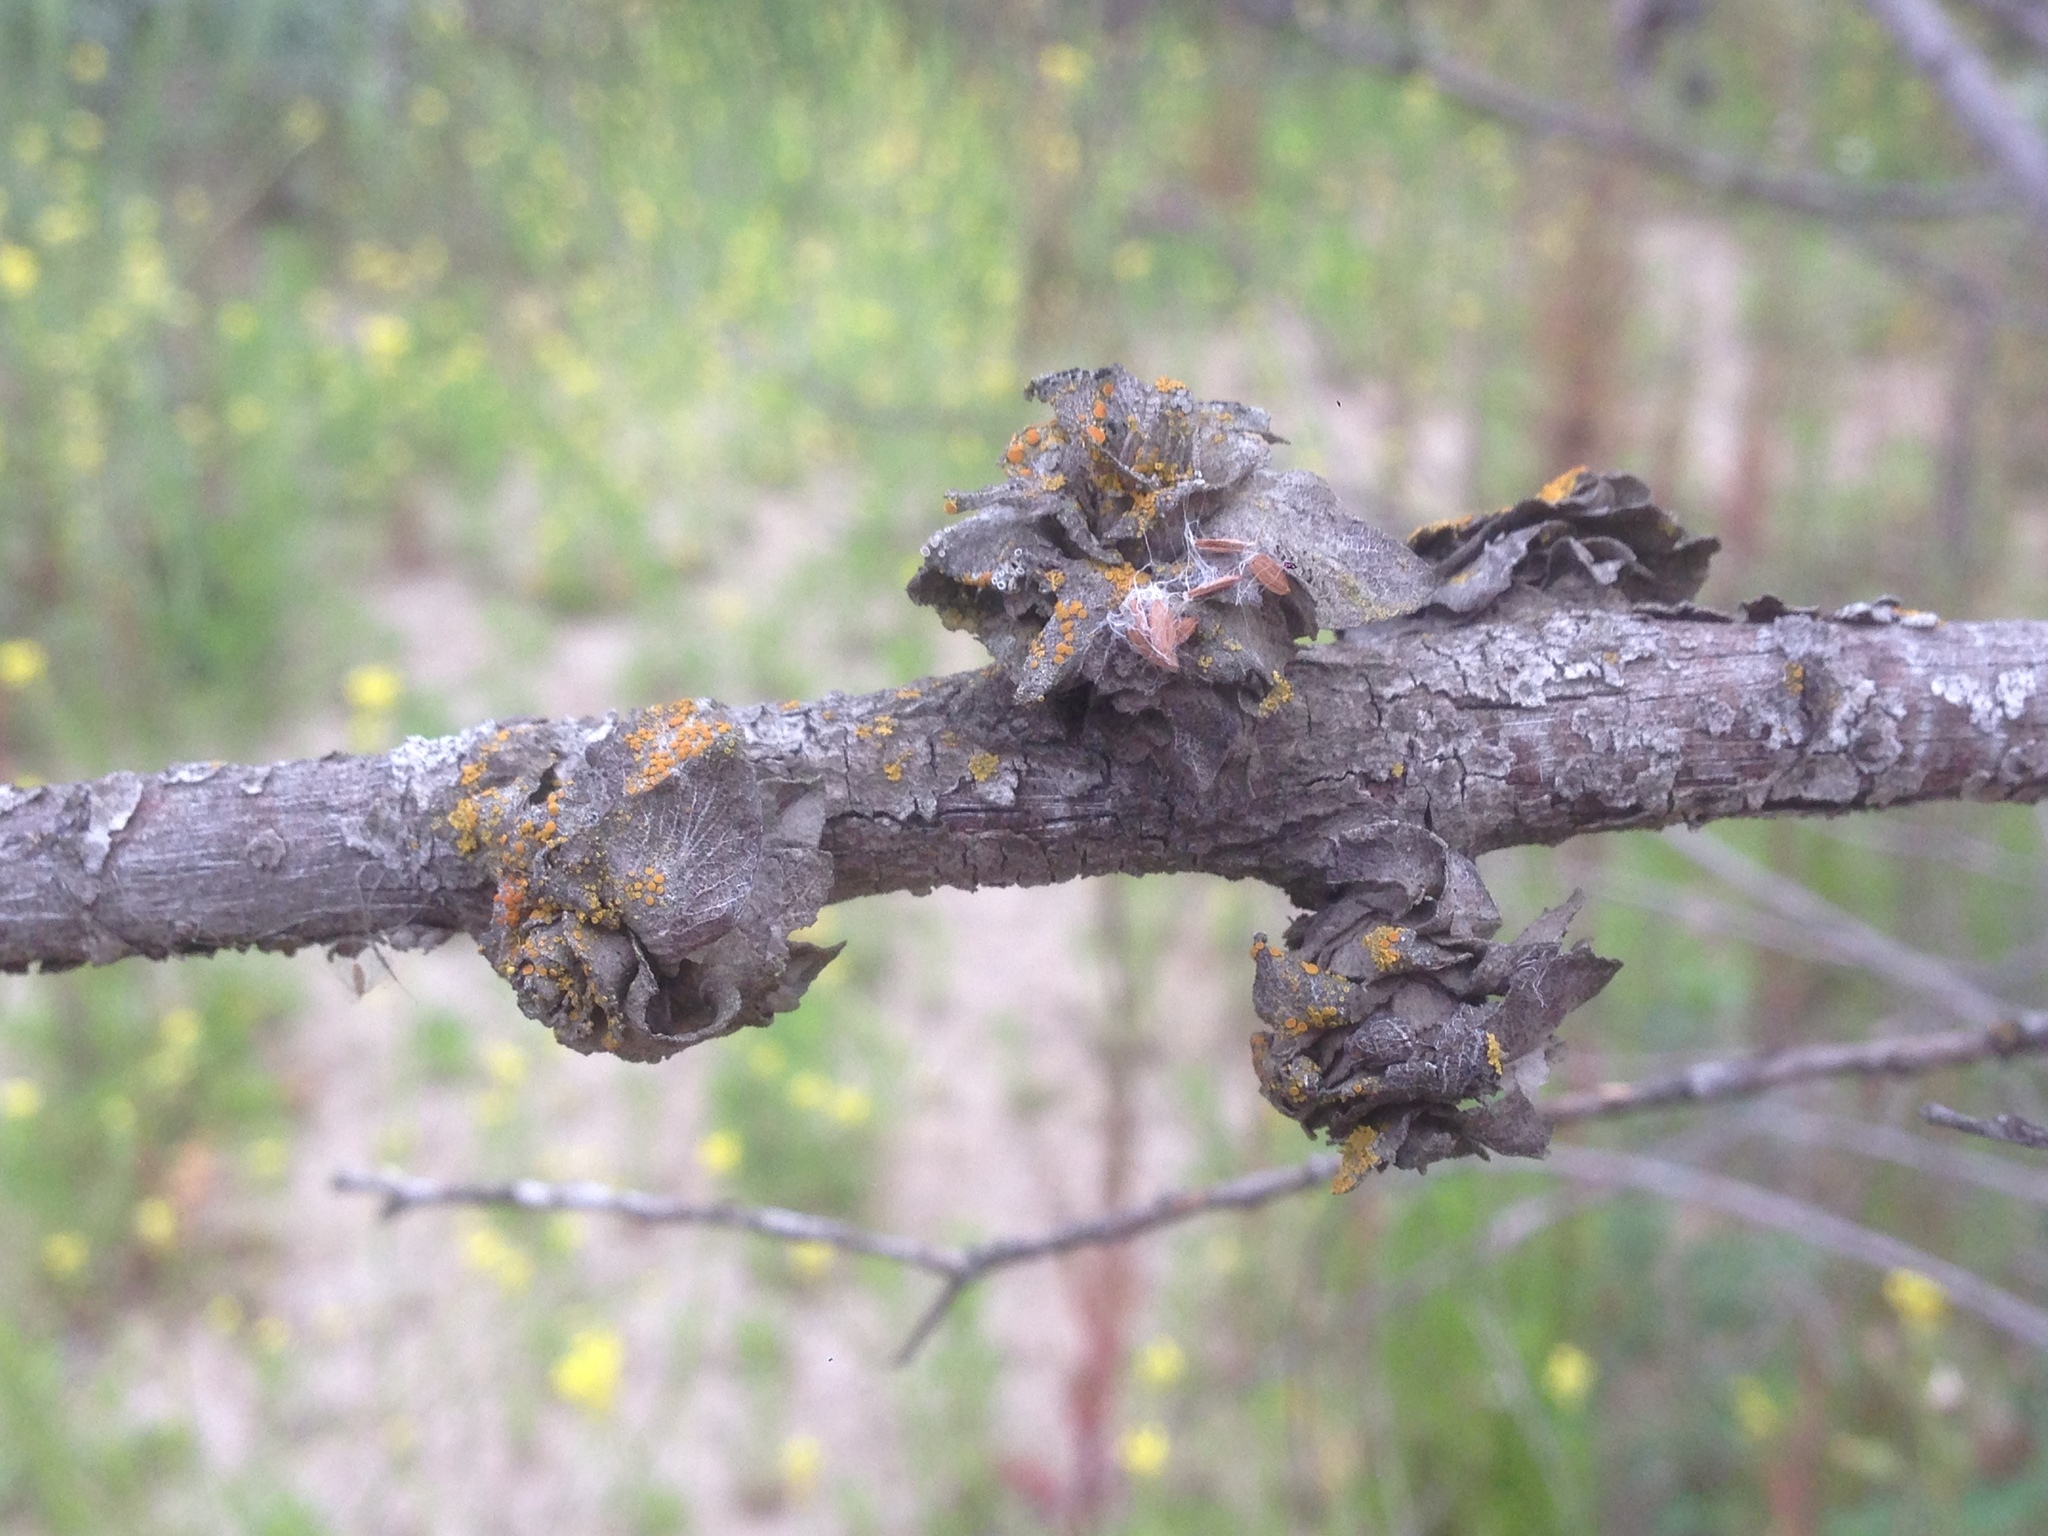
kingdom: Animalia
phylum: Arthropoda
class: Insecta
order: Diptera
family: Cecidomyiidae
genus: Rabdophaga
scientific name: Rabdophaga salicisbrassicoides
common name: Willow cabbagegall midge
